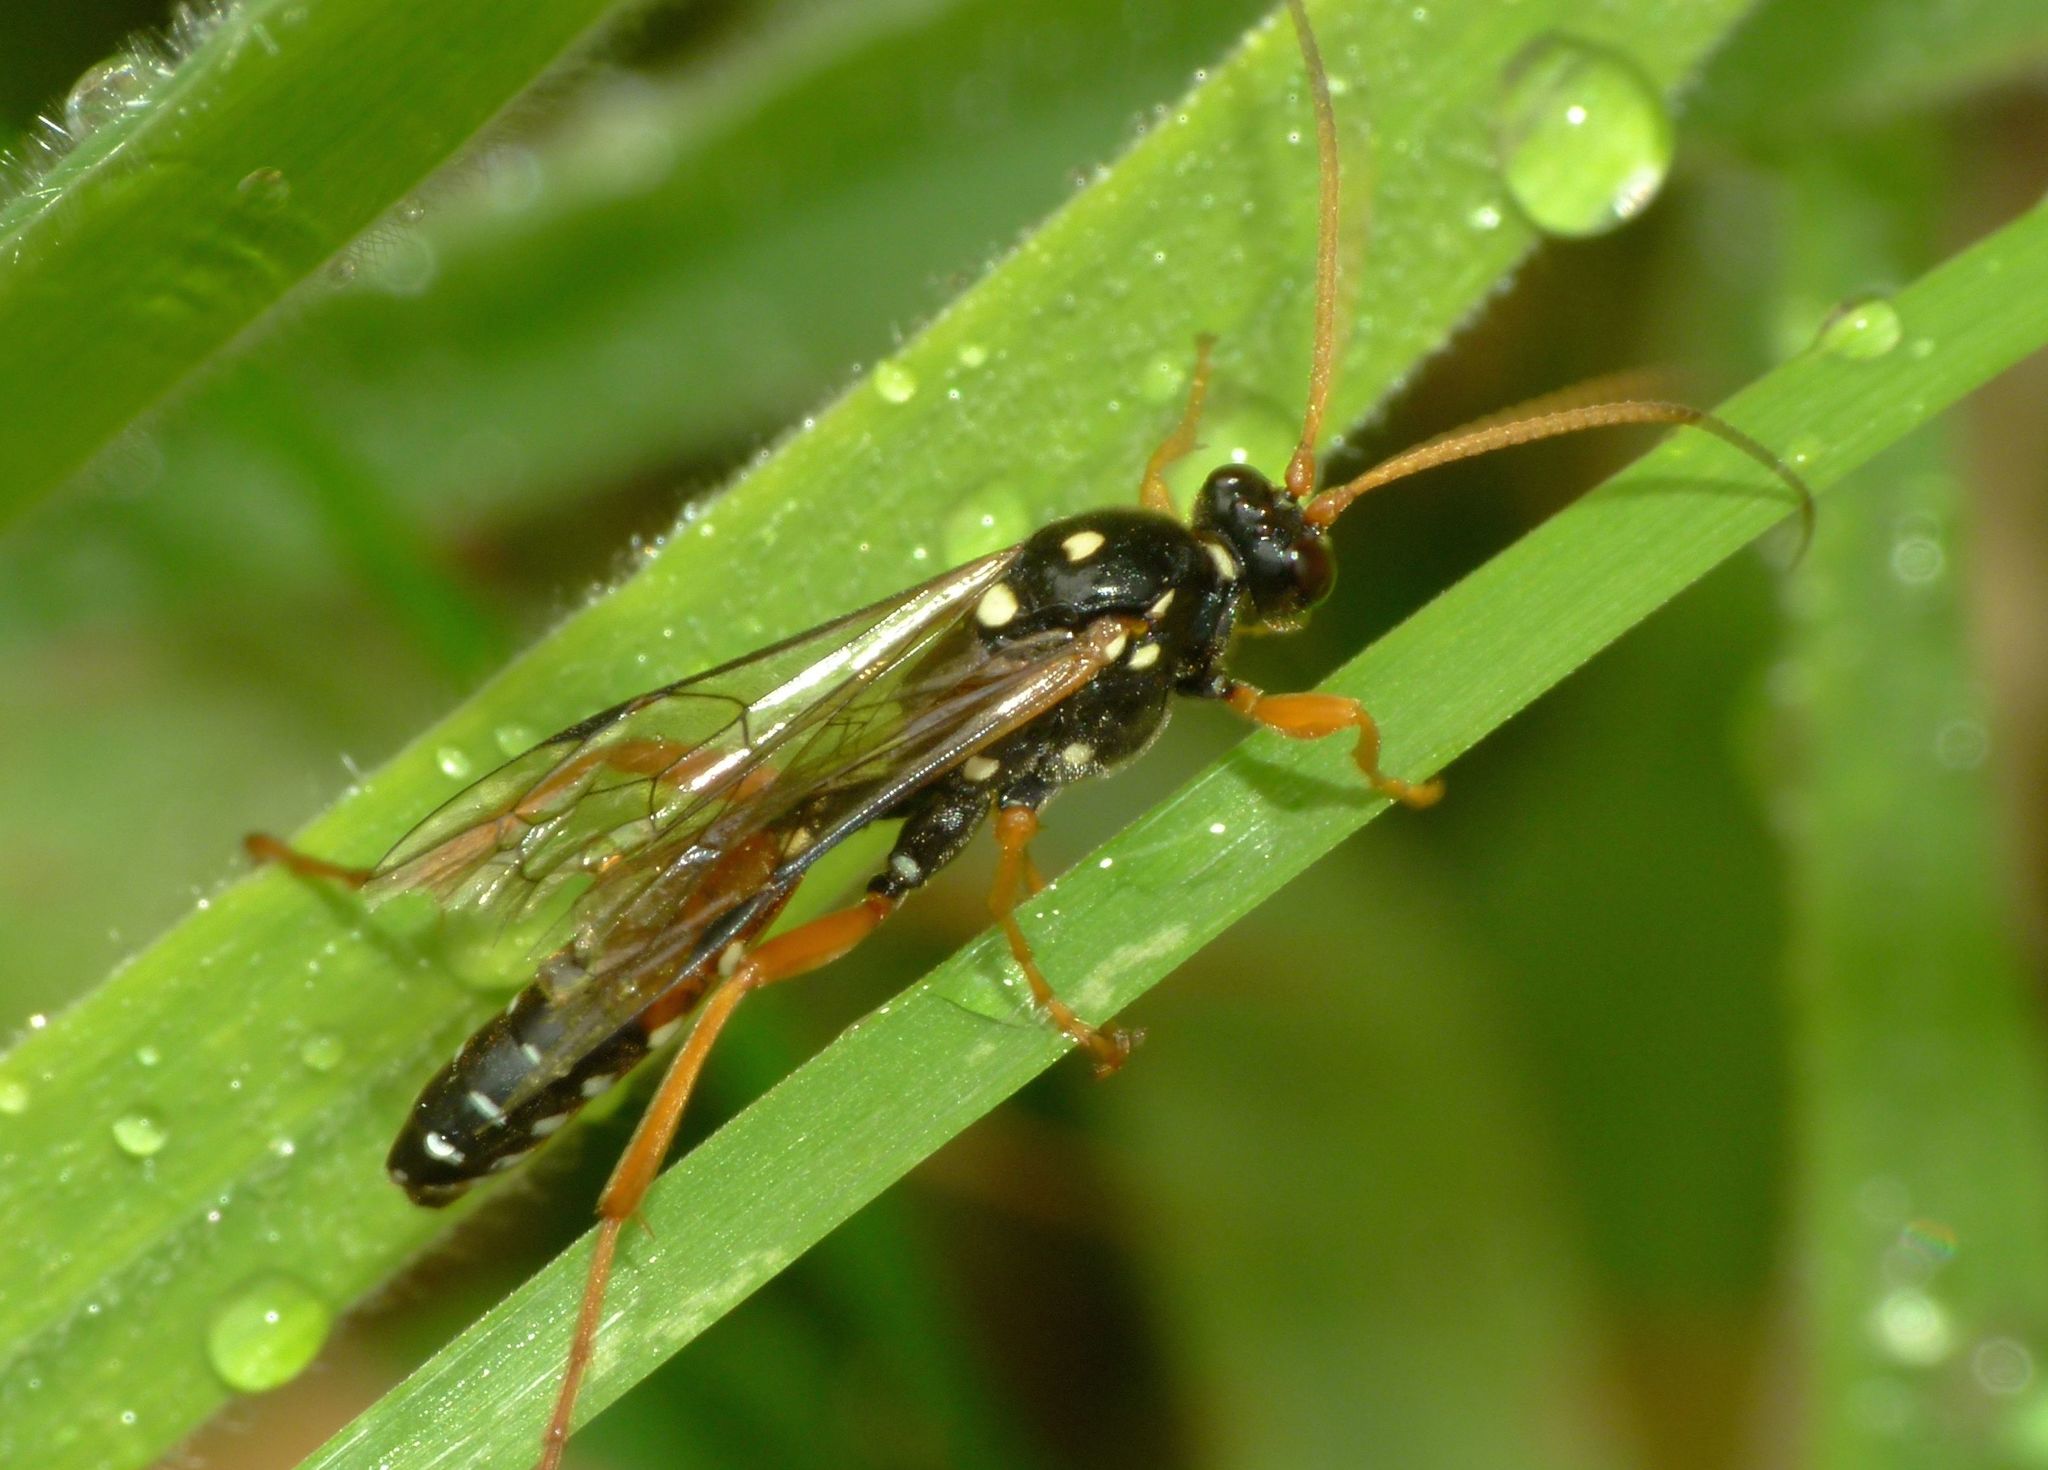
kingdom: Animalia
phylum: Arthropoda
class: Insecta
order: Hymenoptera
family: Ichneumonidae
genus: Eutanyacra
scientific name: Eutanyacra licitatoria
